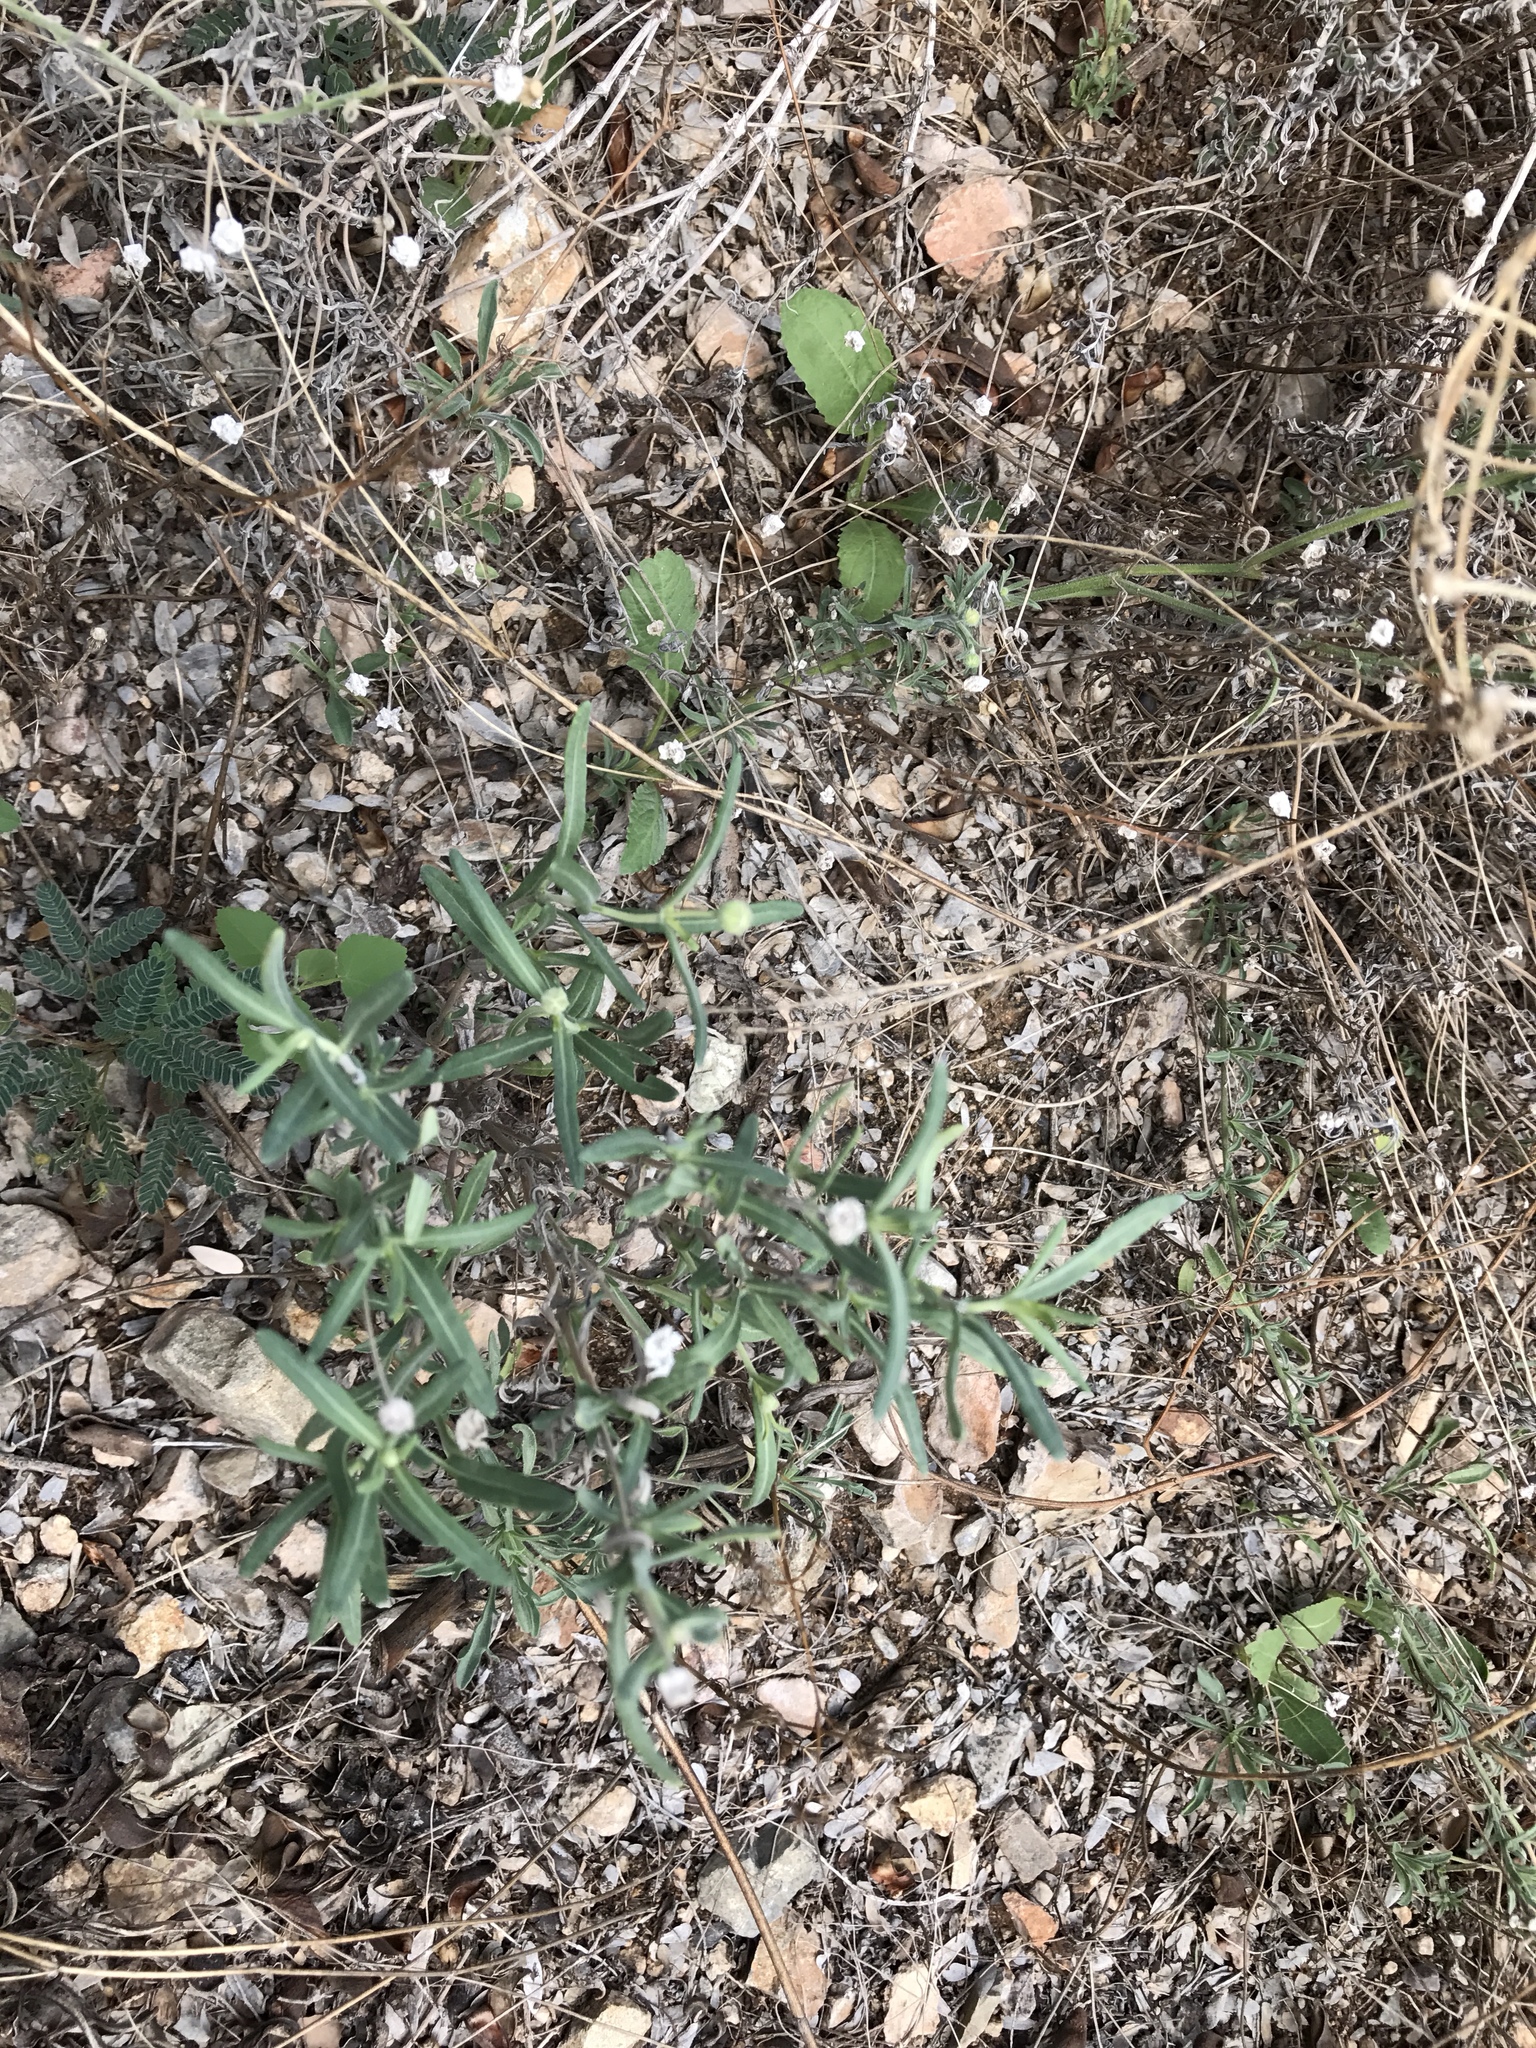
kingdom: Plantae
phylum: Tracheophyta
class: Magnoliopsida
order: Asterales
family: Asteraceae
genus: Melampodium
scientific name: Melampodium leucanthum
